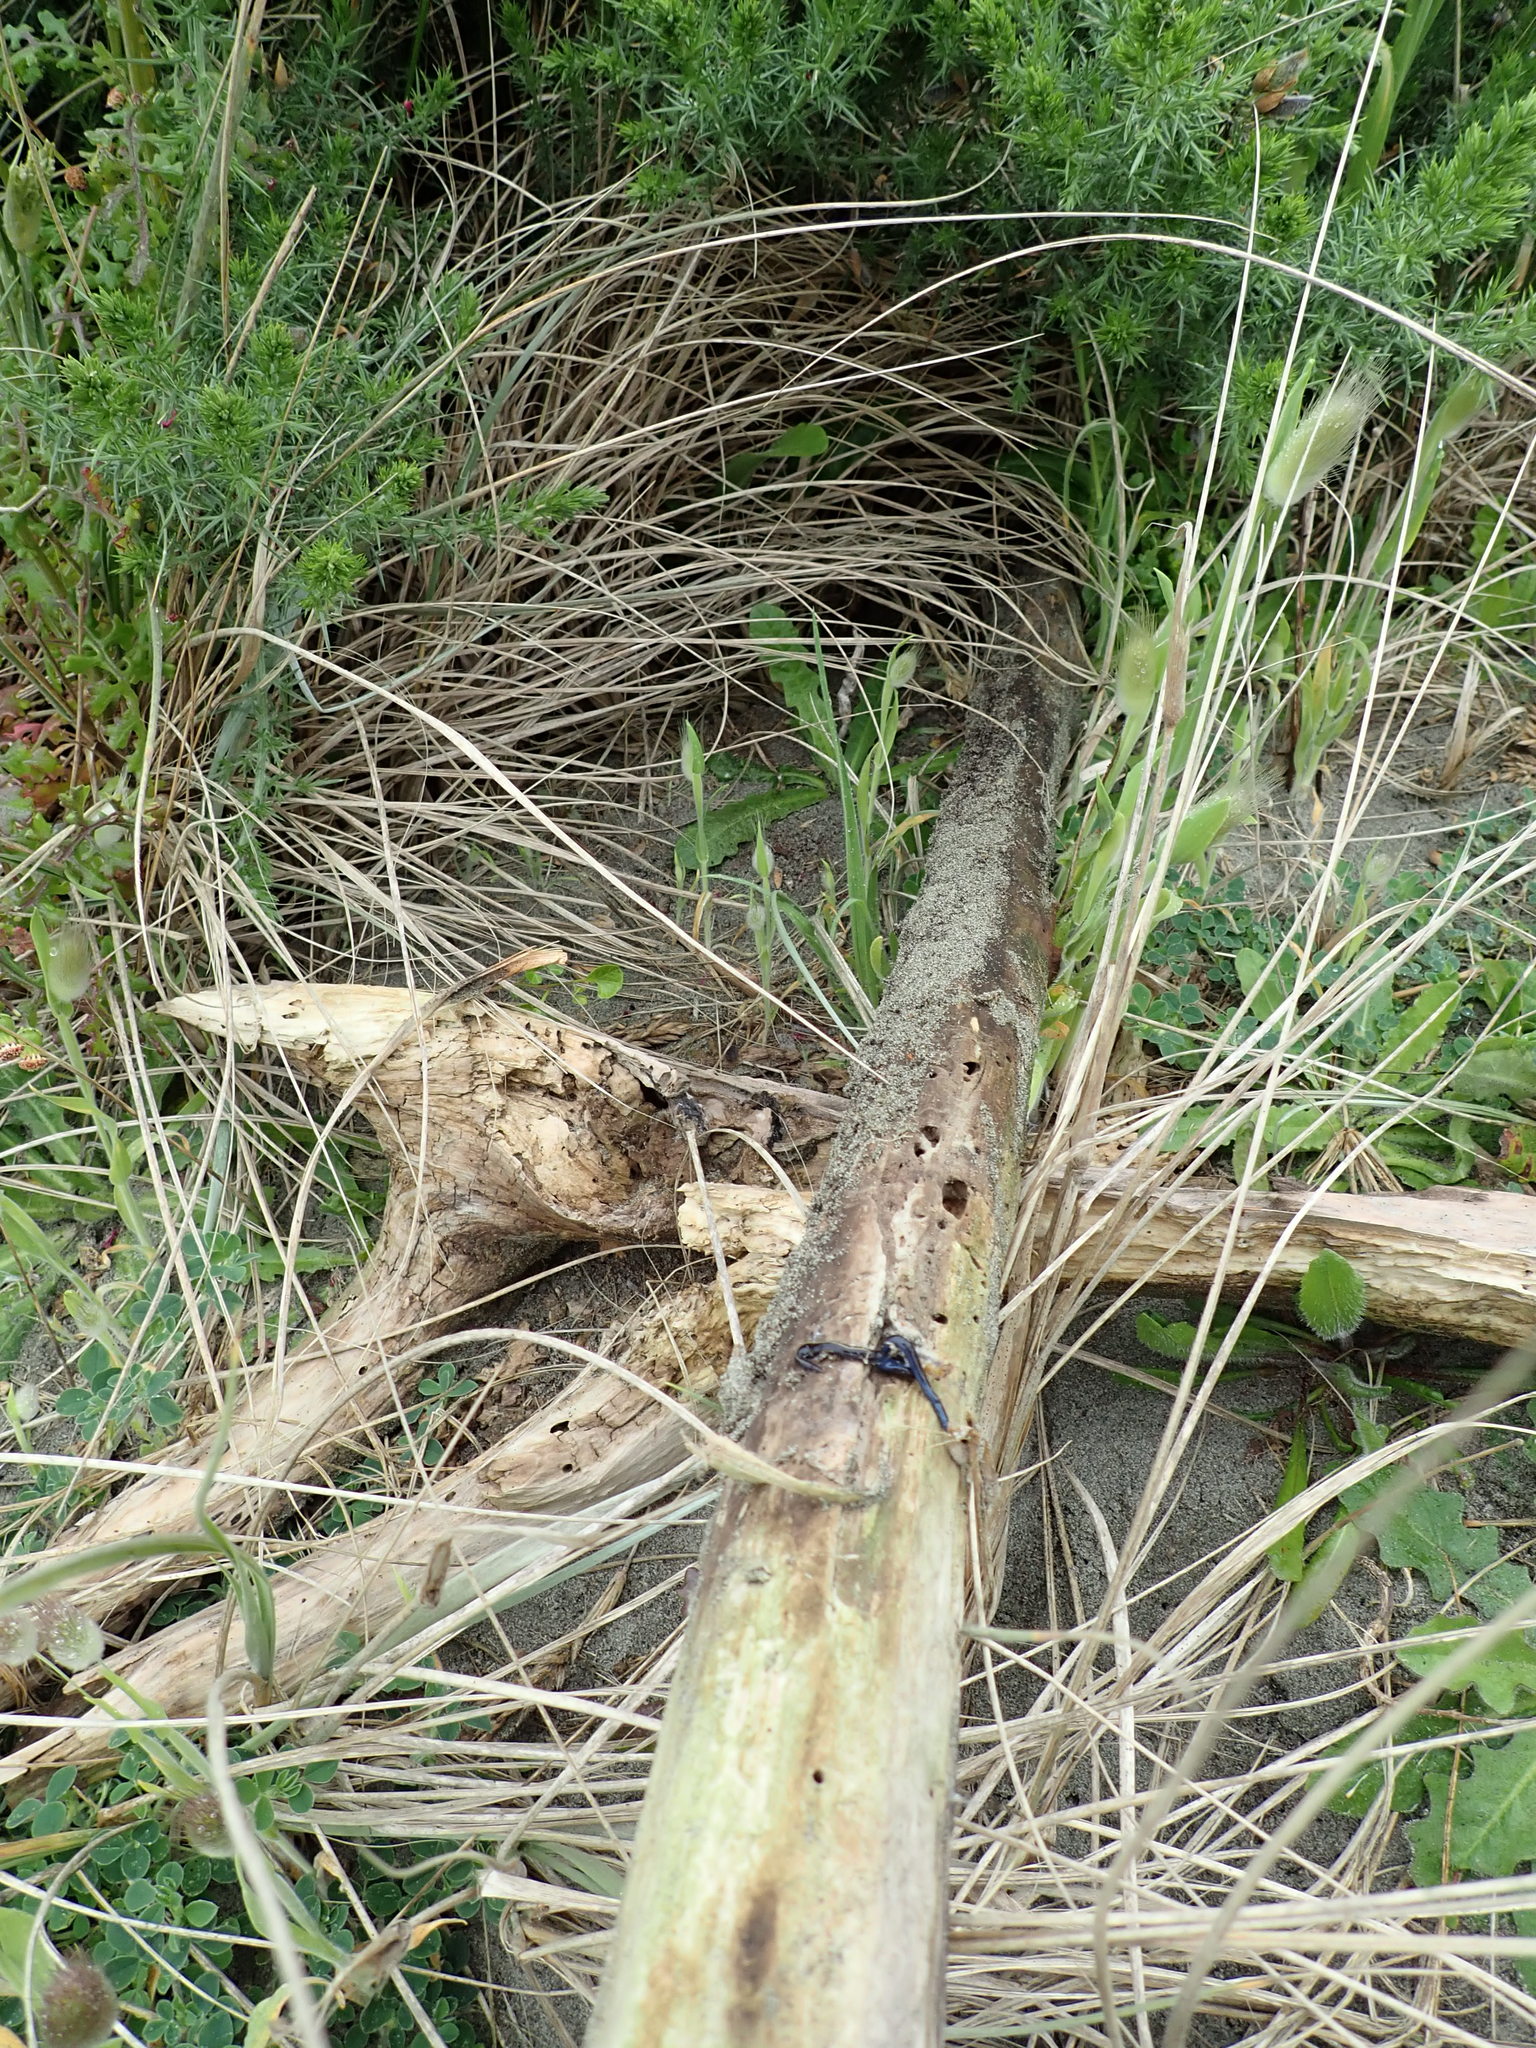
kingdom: Animalia
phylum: Platyhelminthes
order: Tricladida
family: Geoplanidae
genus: Caenoplana
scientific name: Caenoplana coerulea
